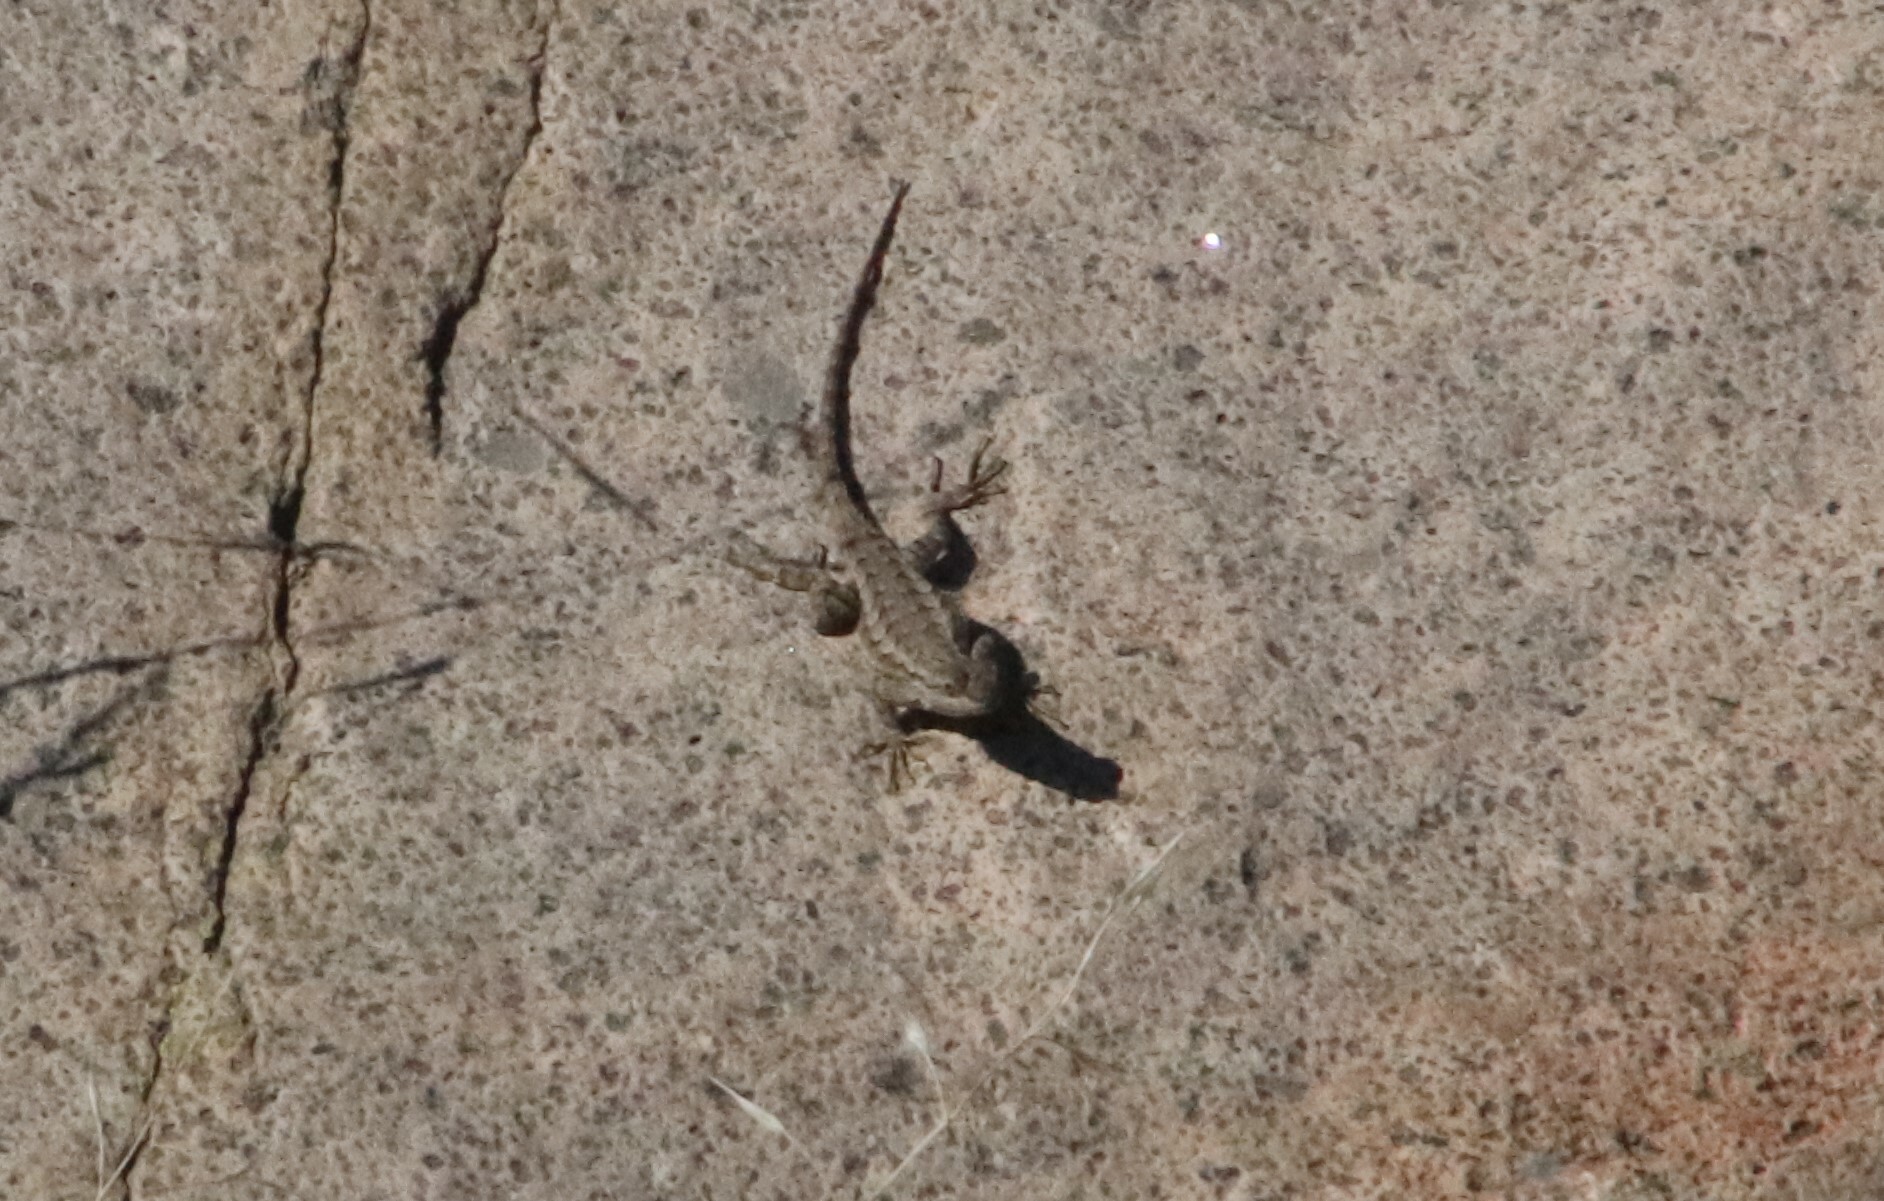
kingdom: Animalia
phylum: Chordata
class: Squamata
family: Phrynosomatidae
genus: Sceloporus
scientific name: Sceloporus occidentalis
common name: Western fence lizard
